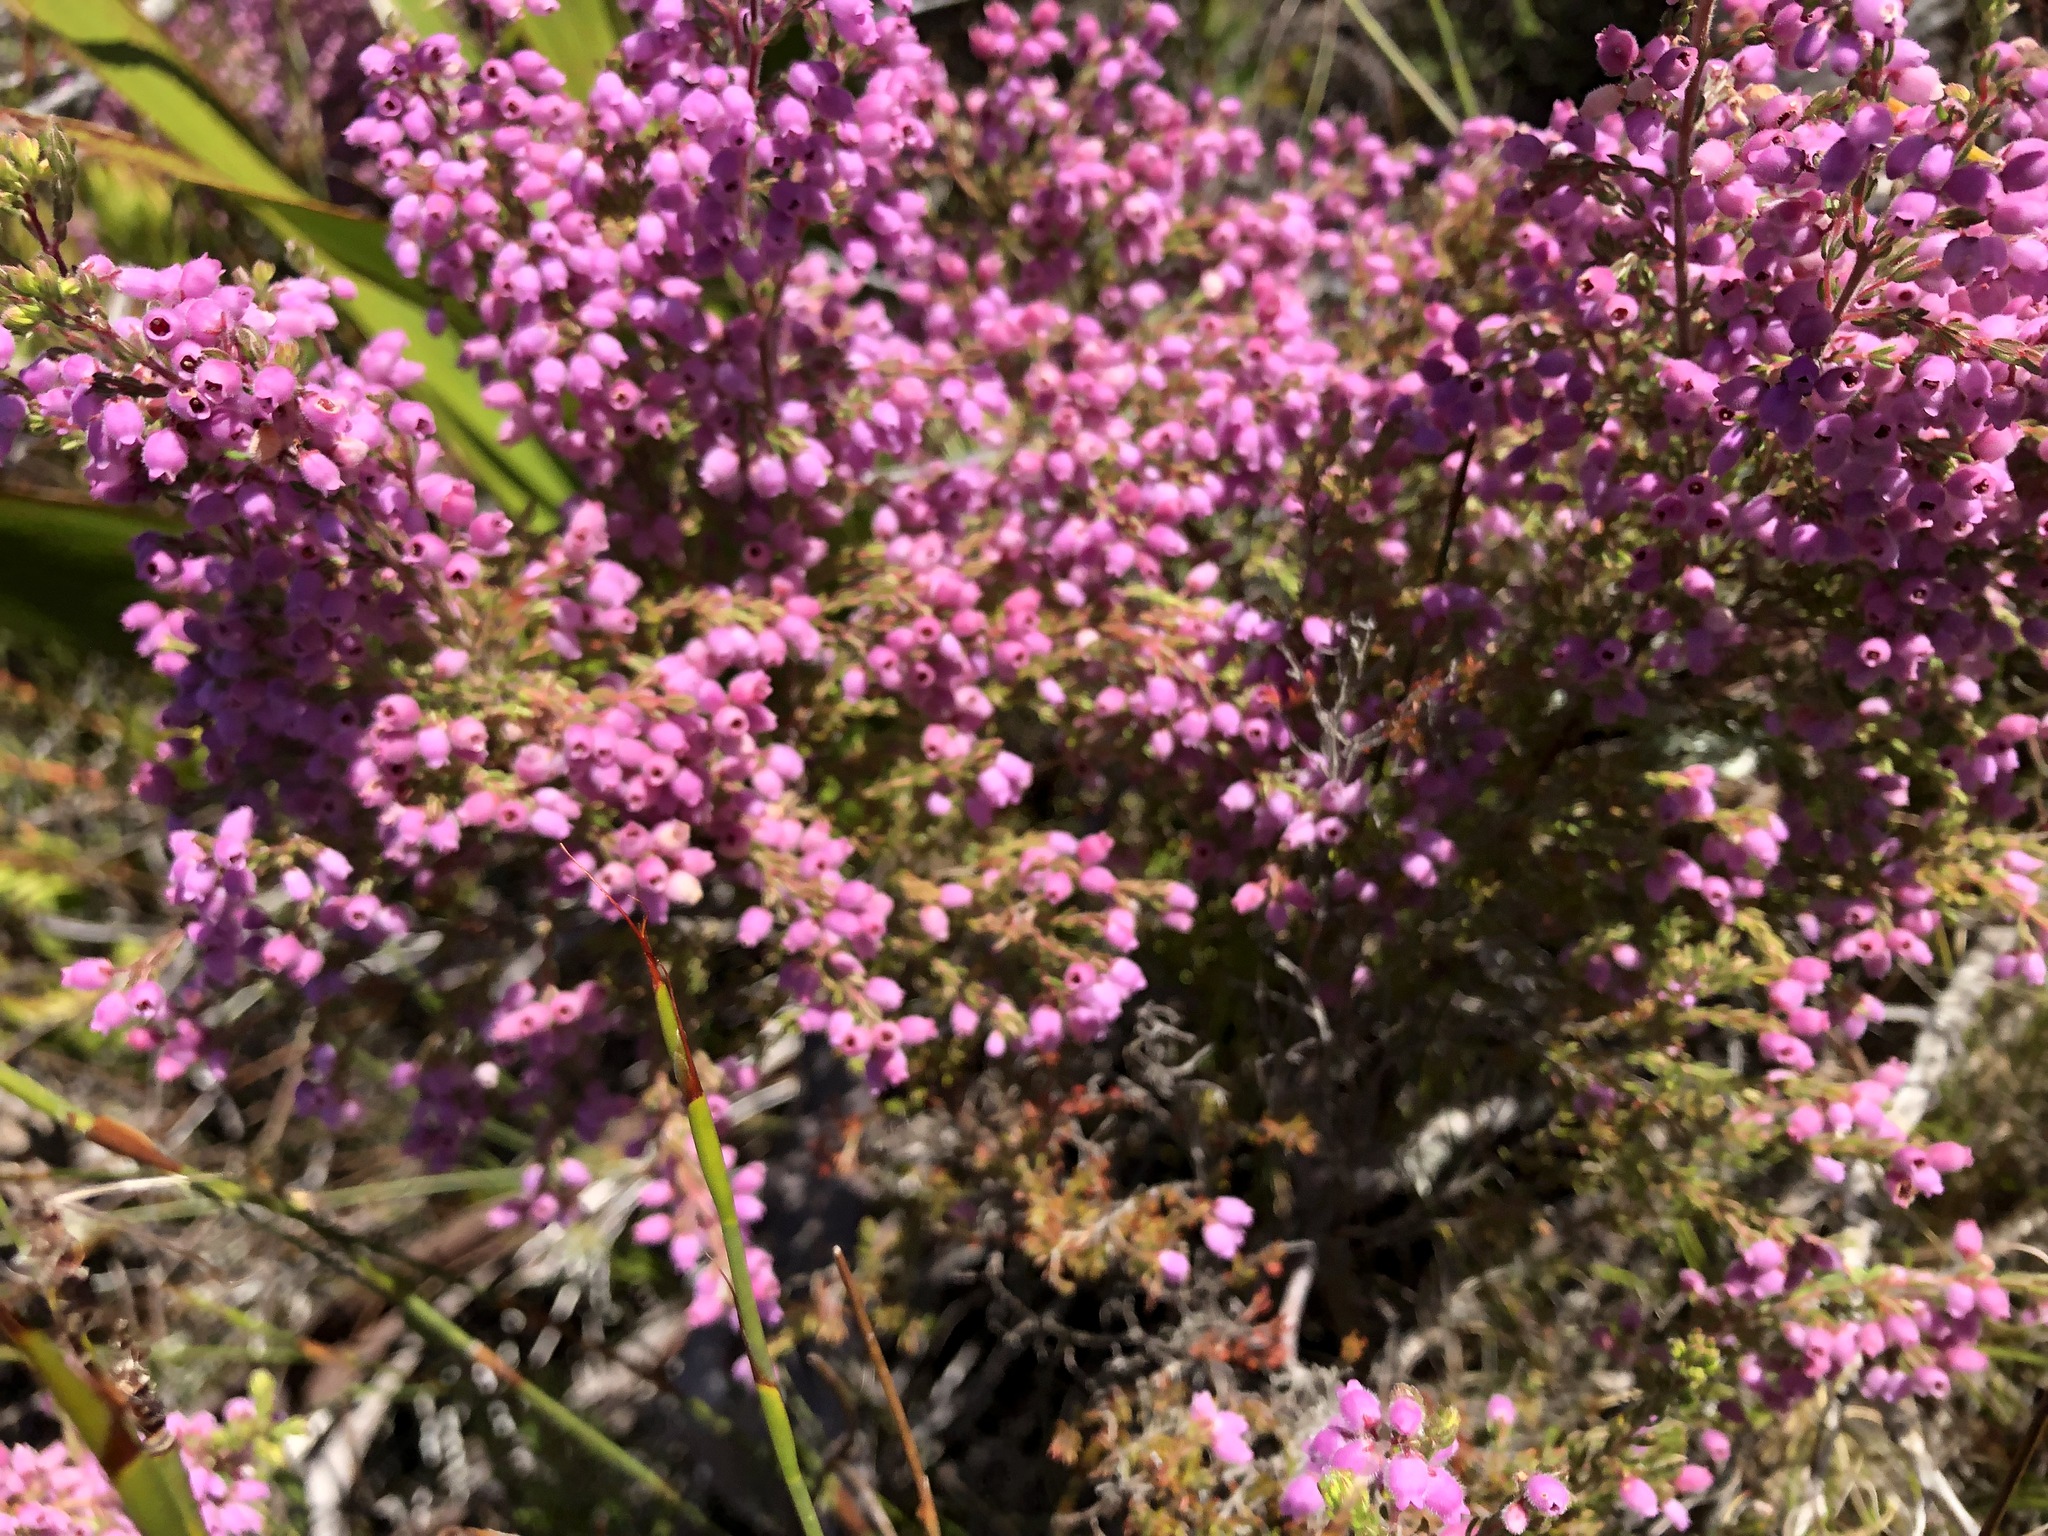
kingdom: Plantae
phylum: Tracheophyta
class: Magnoliopsida
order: Ericales
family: Ericaceae
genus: Erica
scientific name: Erica hirtiflora
